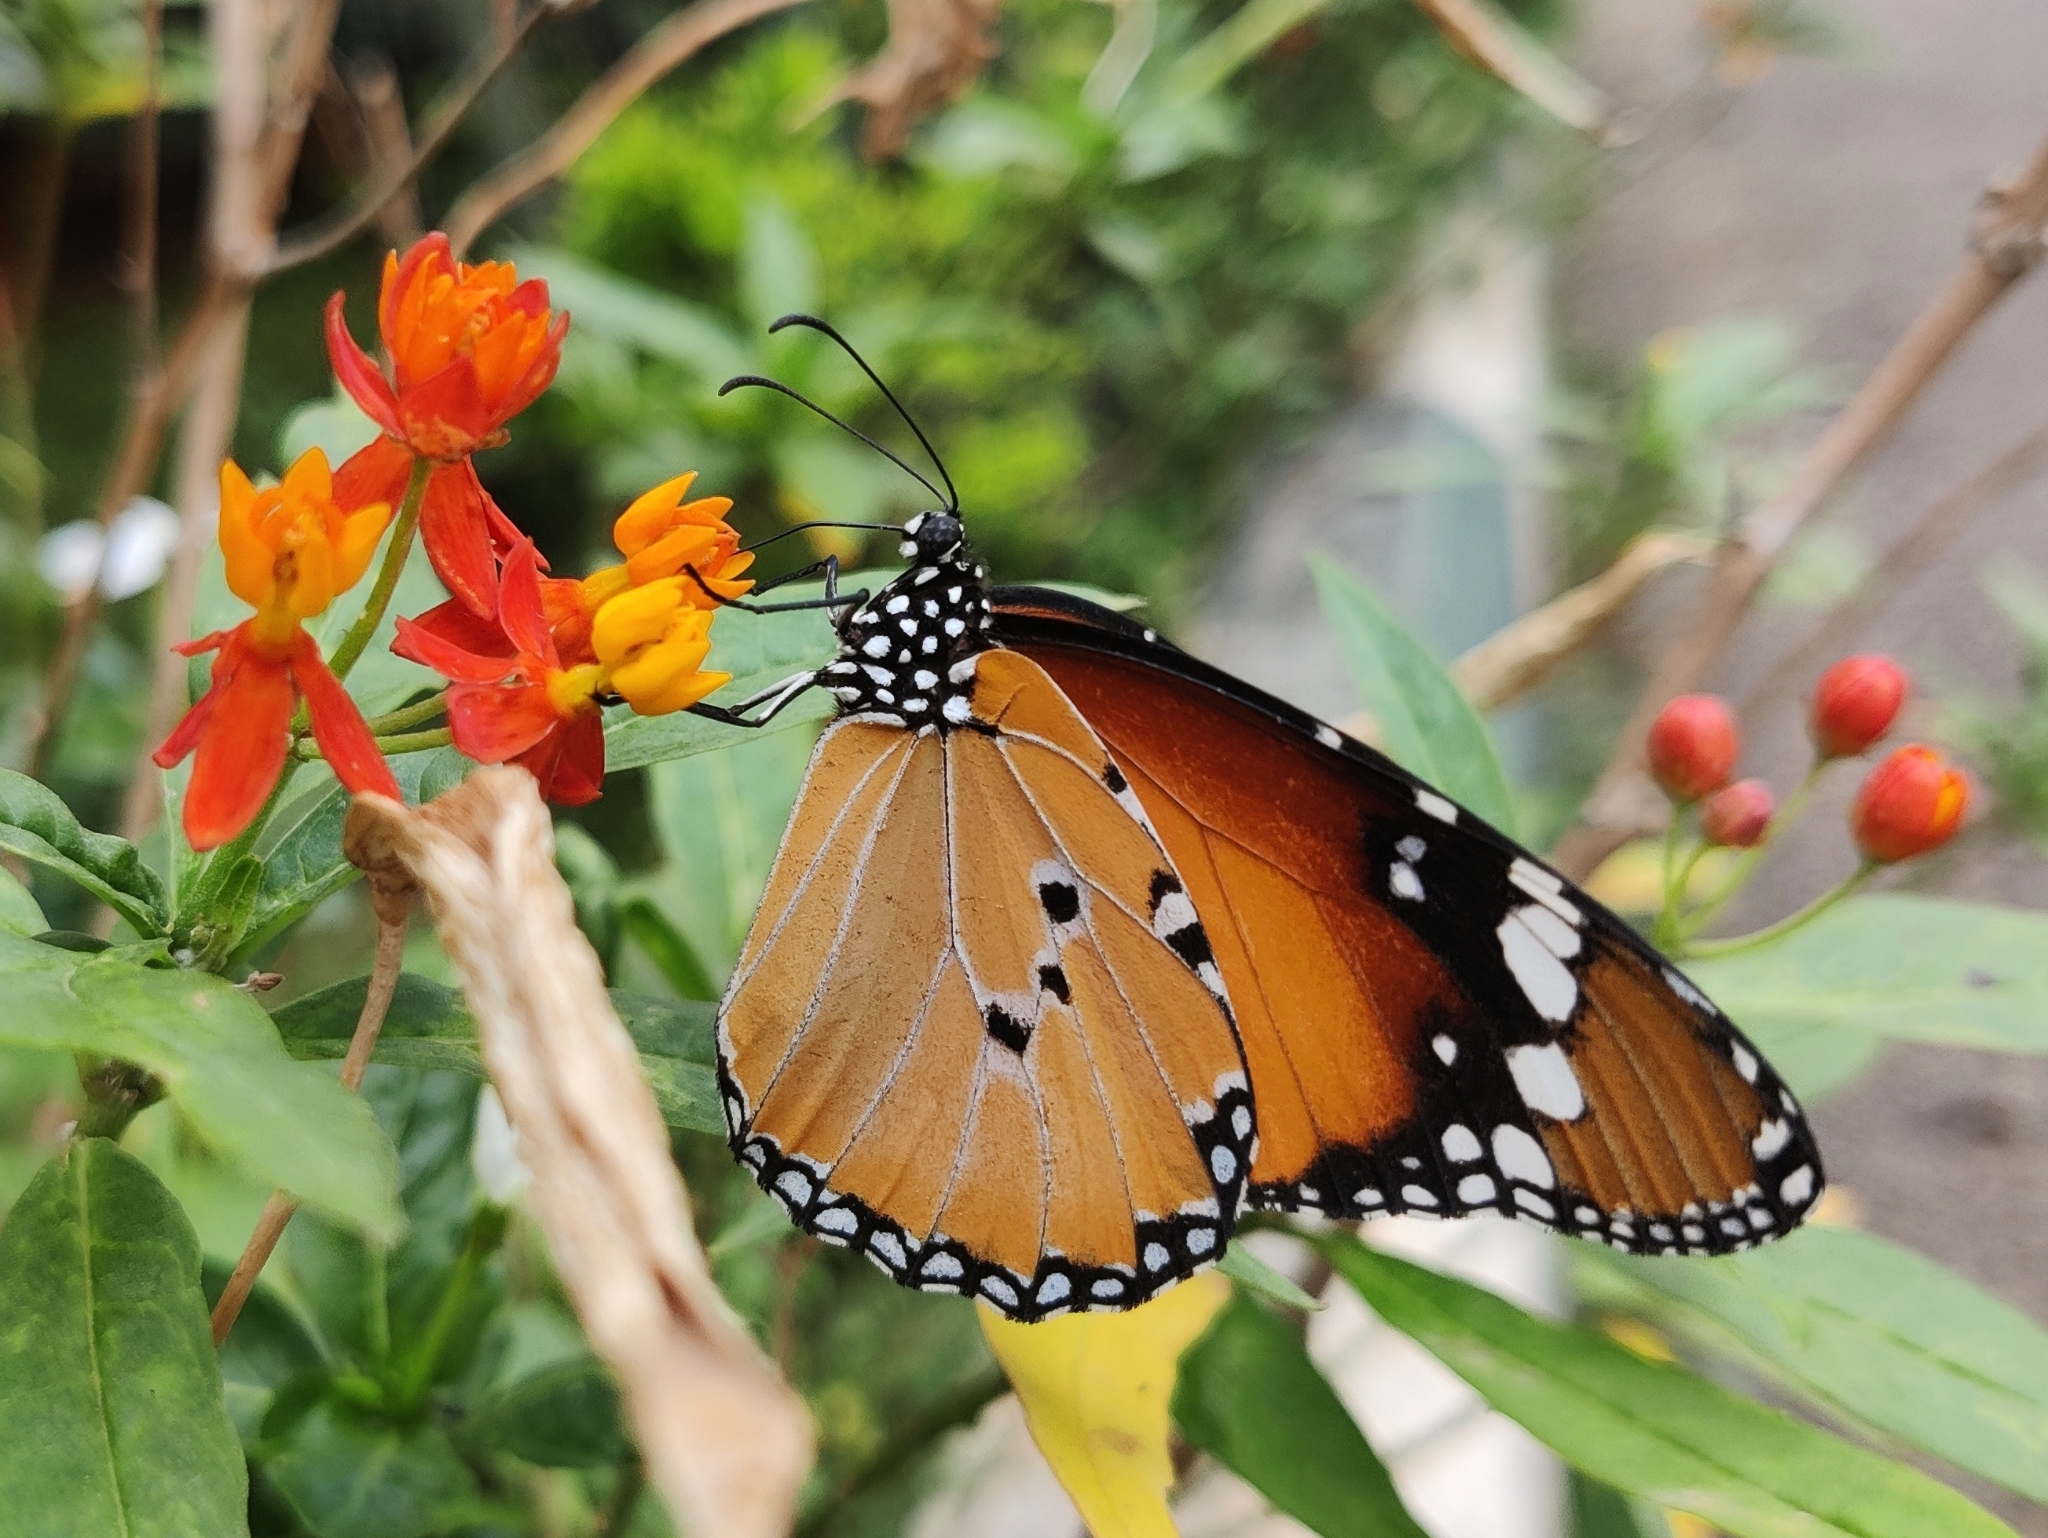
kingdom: Animalia
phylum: Arthropoda
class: Insecta
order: Lepidoptera
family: Nymphalidae
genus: Danaus
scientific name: Danaus chrysippus
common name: Plain tiger
